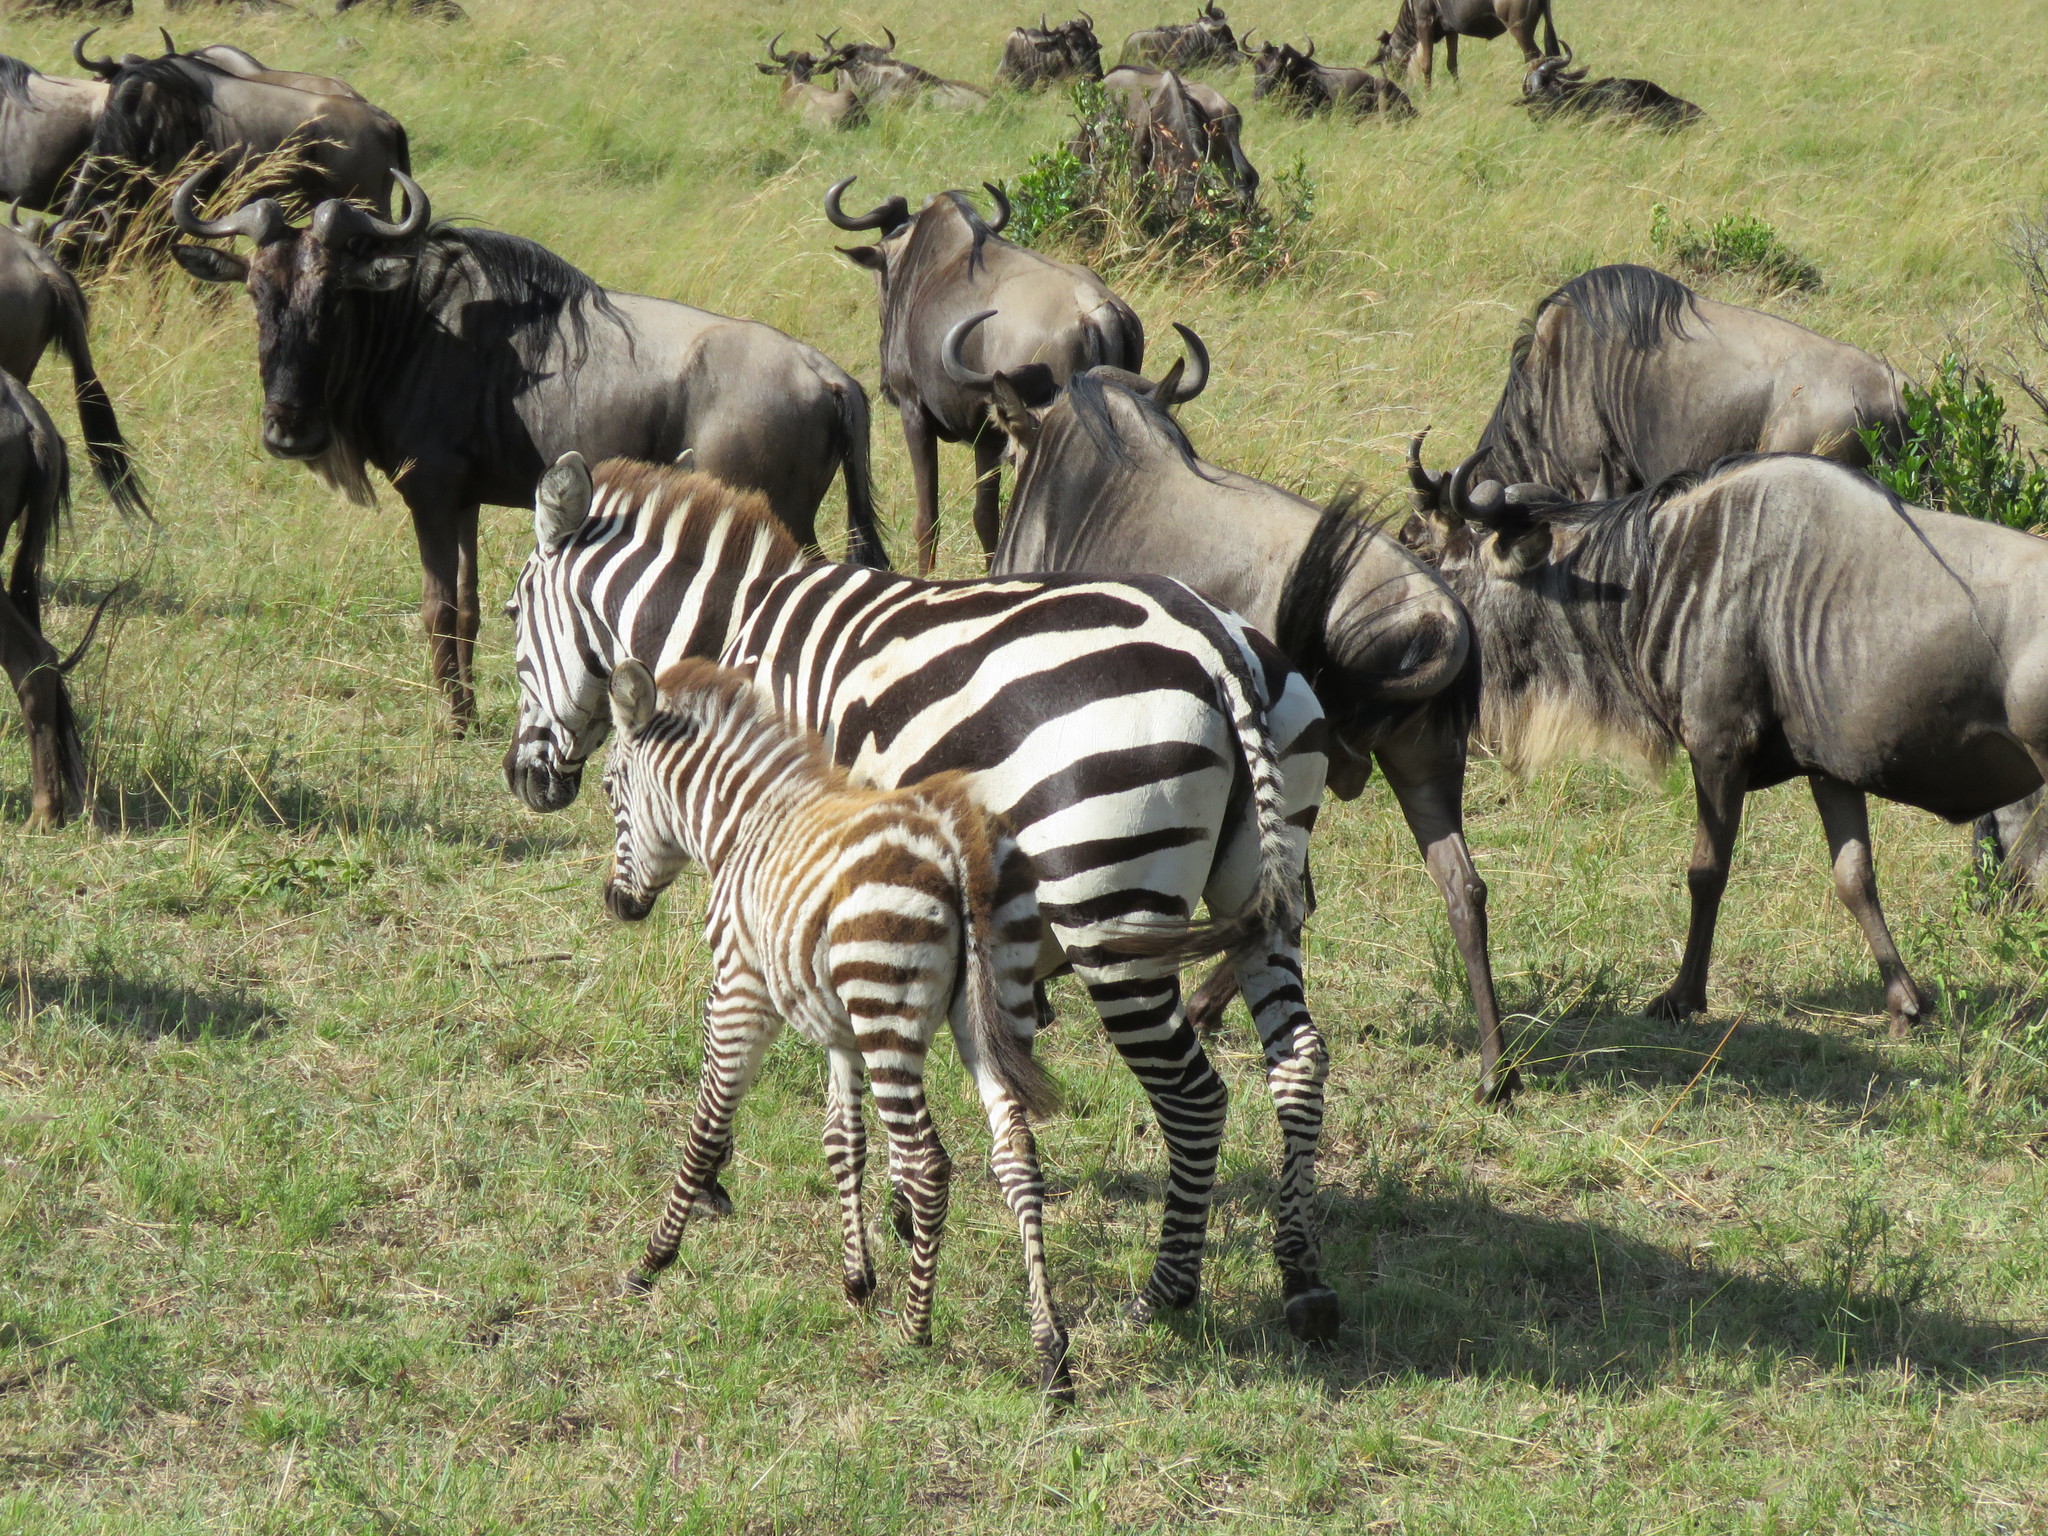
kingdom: Animalia
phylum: Chordata
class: Mammalia
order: Perissodactyla
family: Equidae
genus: Equus
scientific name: Equus quagga
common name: Plains zebra
